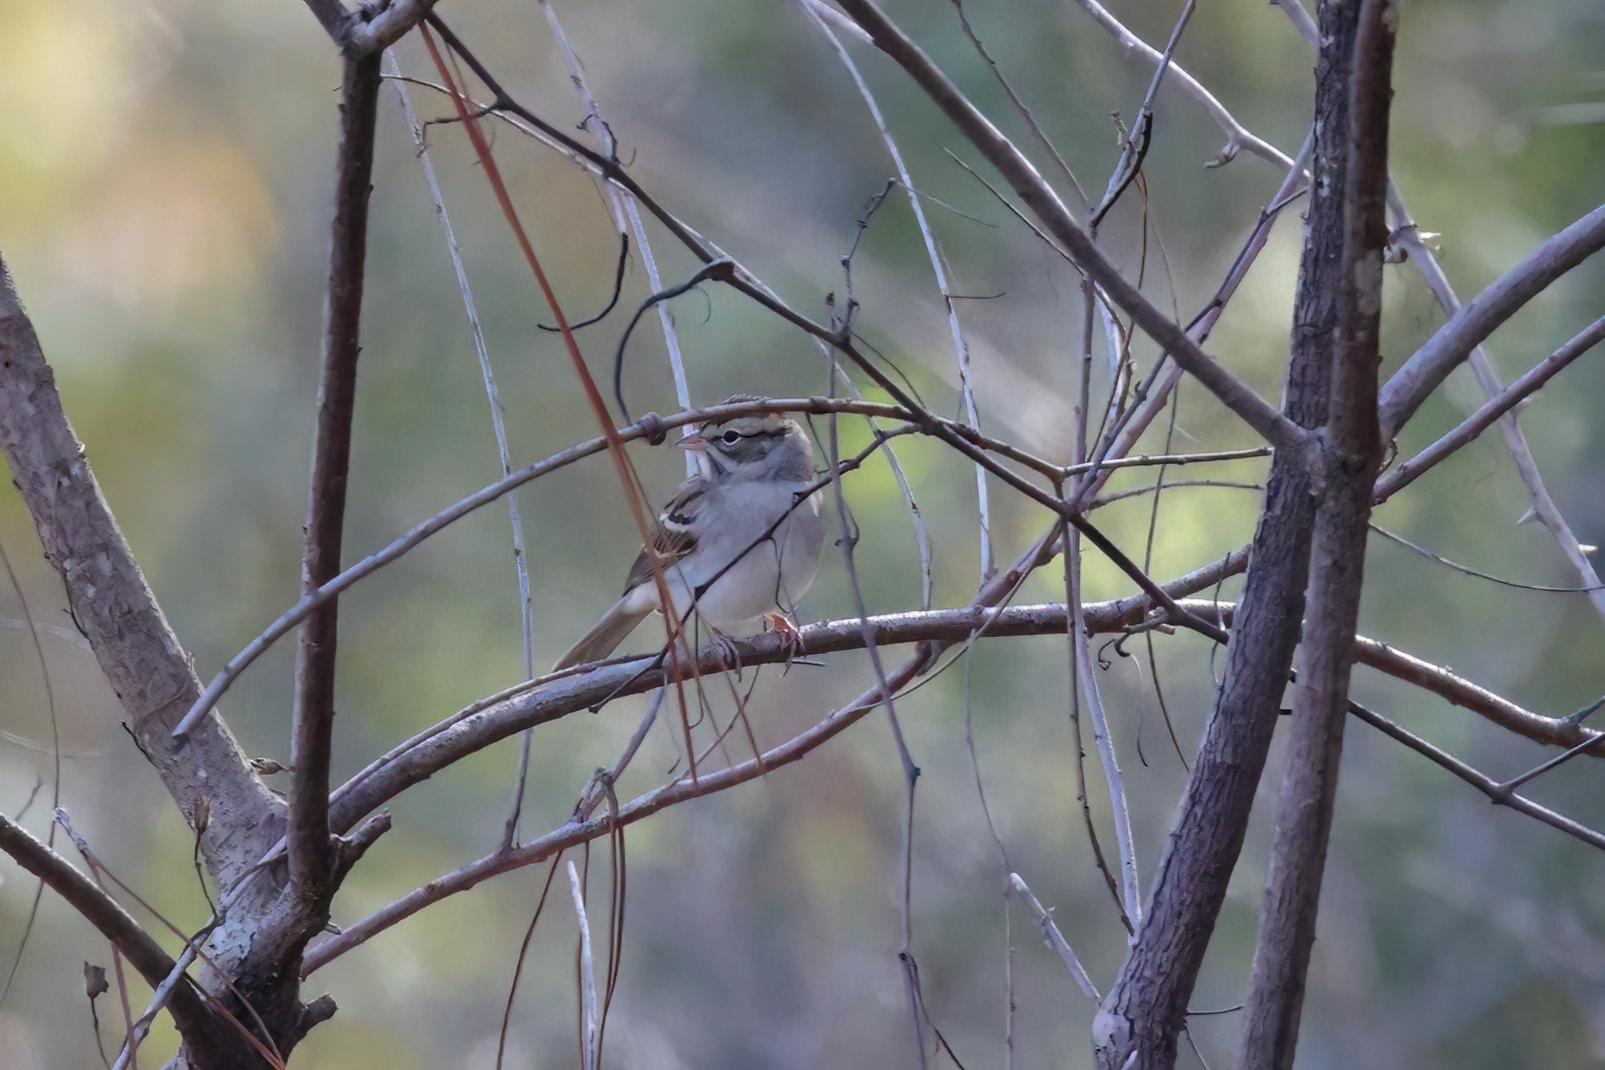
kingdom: Animalia
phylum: Chordata
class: Aves
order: Passeriformes
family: Passerellidae
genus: Spizella
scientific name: Spizella passerina
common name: Chipping sparrow
